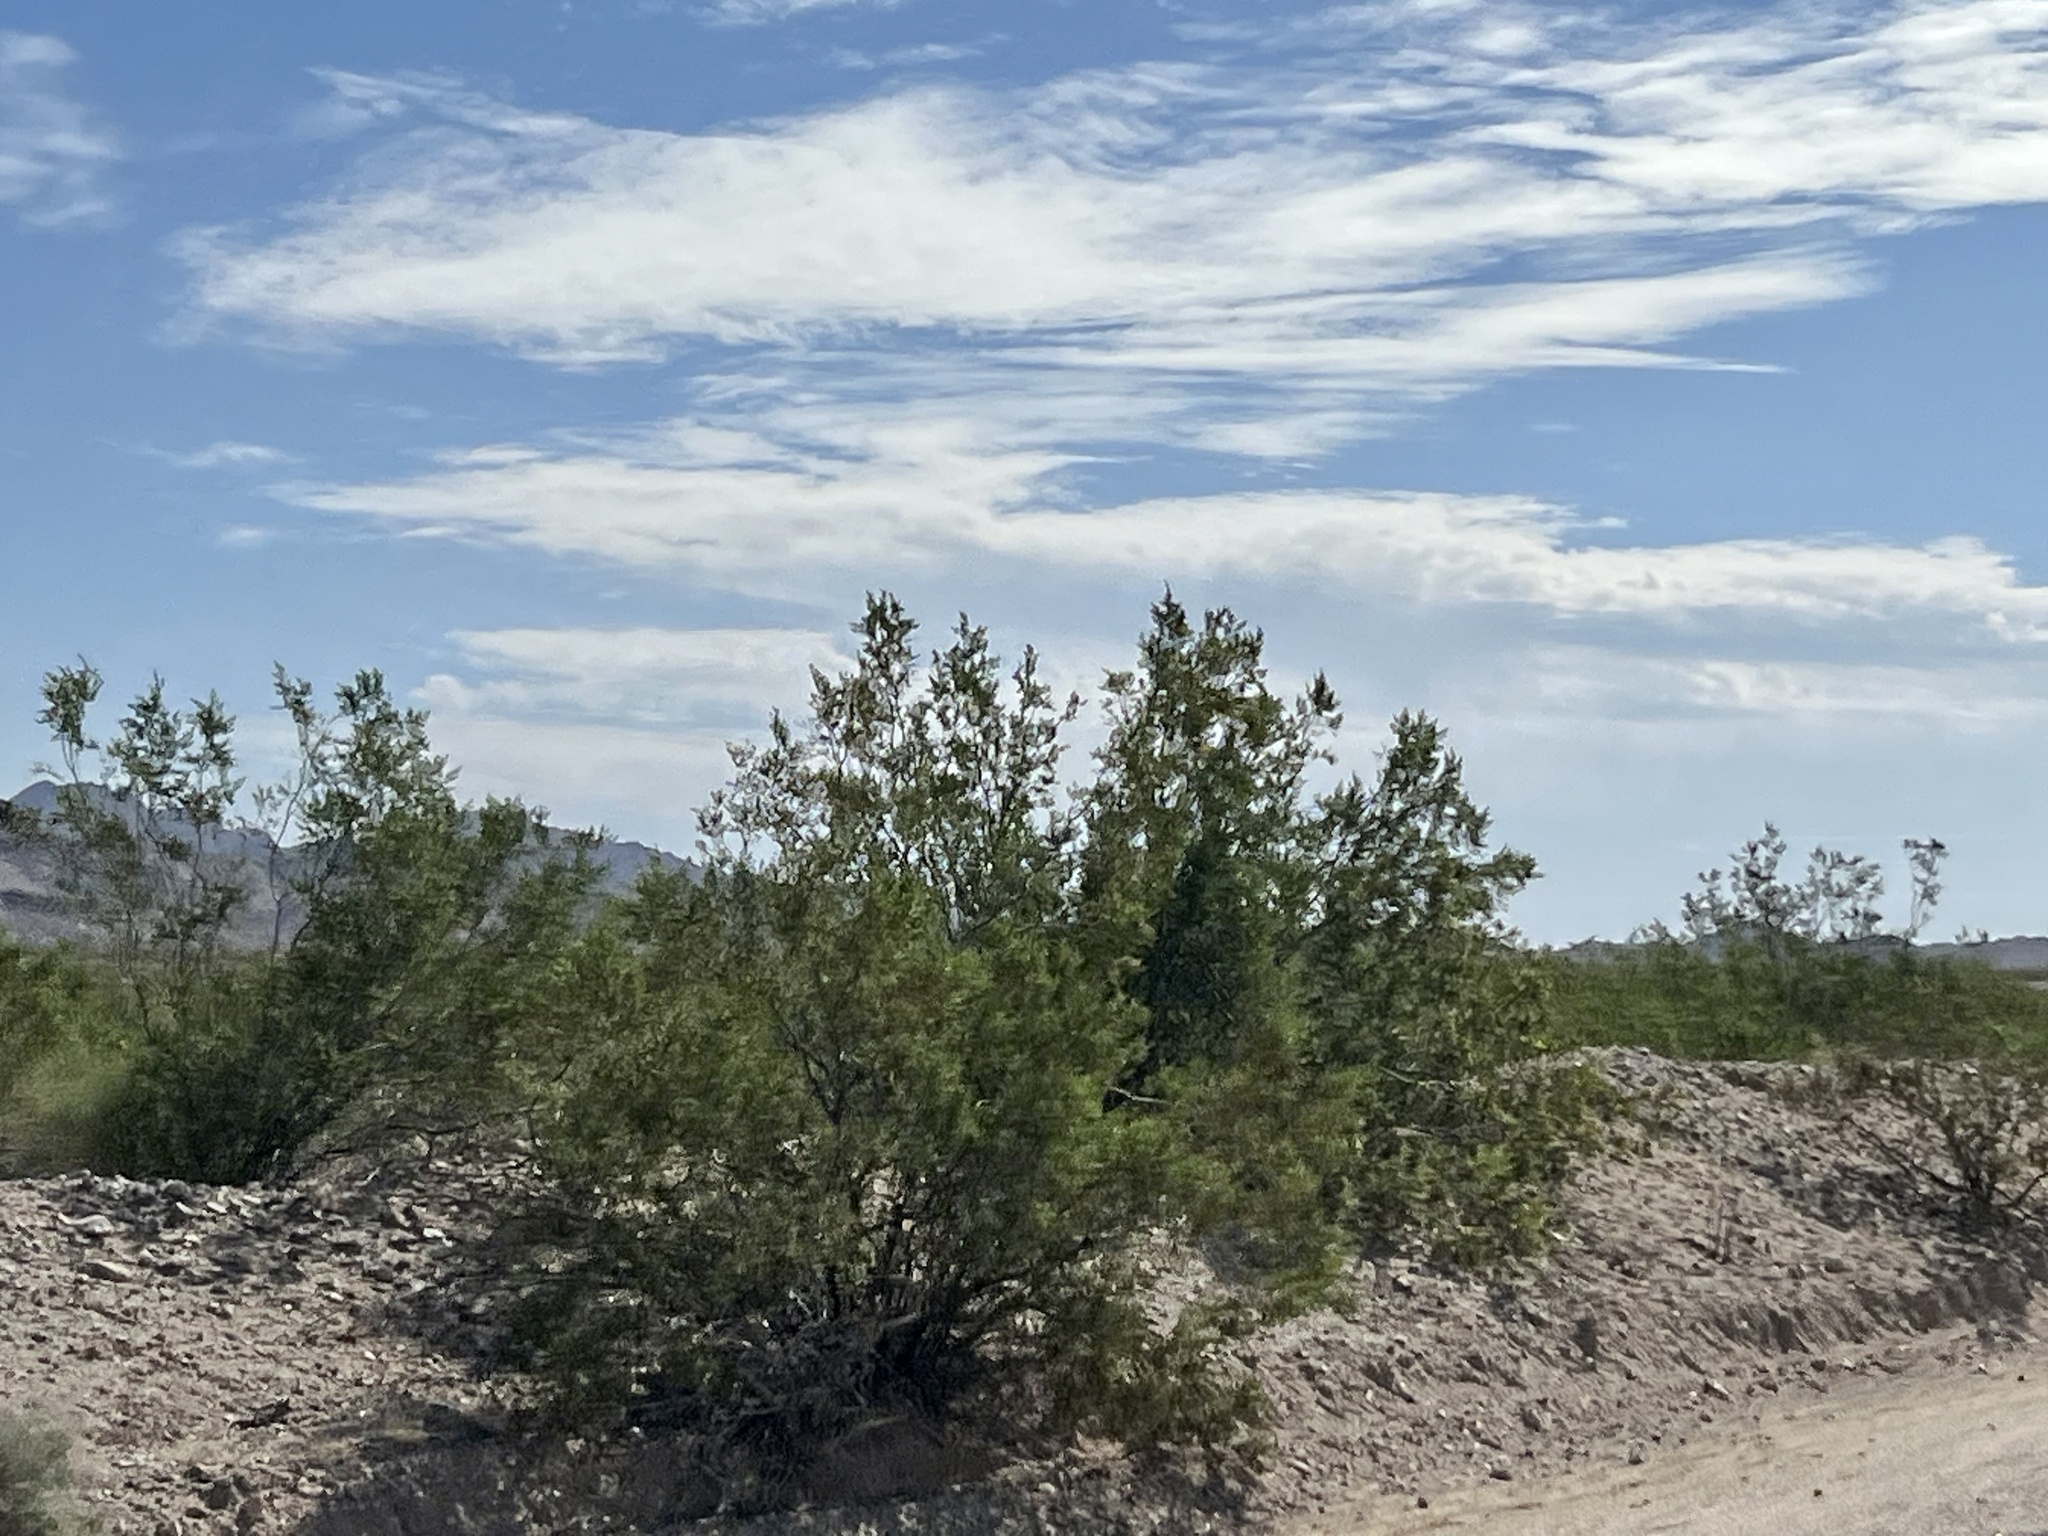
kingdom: Plantae
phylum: Tracheophyta
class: Magnoliopsida
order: Zygophyllales
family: Zygophyllaceae
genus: Larrea
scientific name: Larrea tridentata
